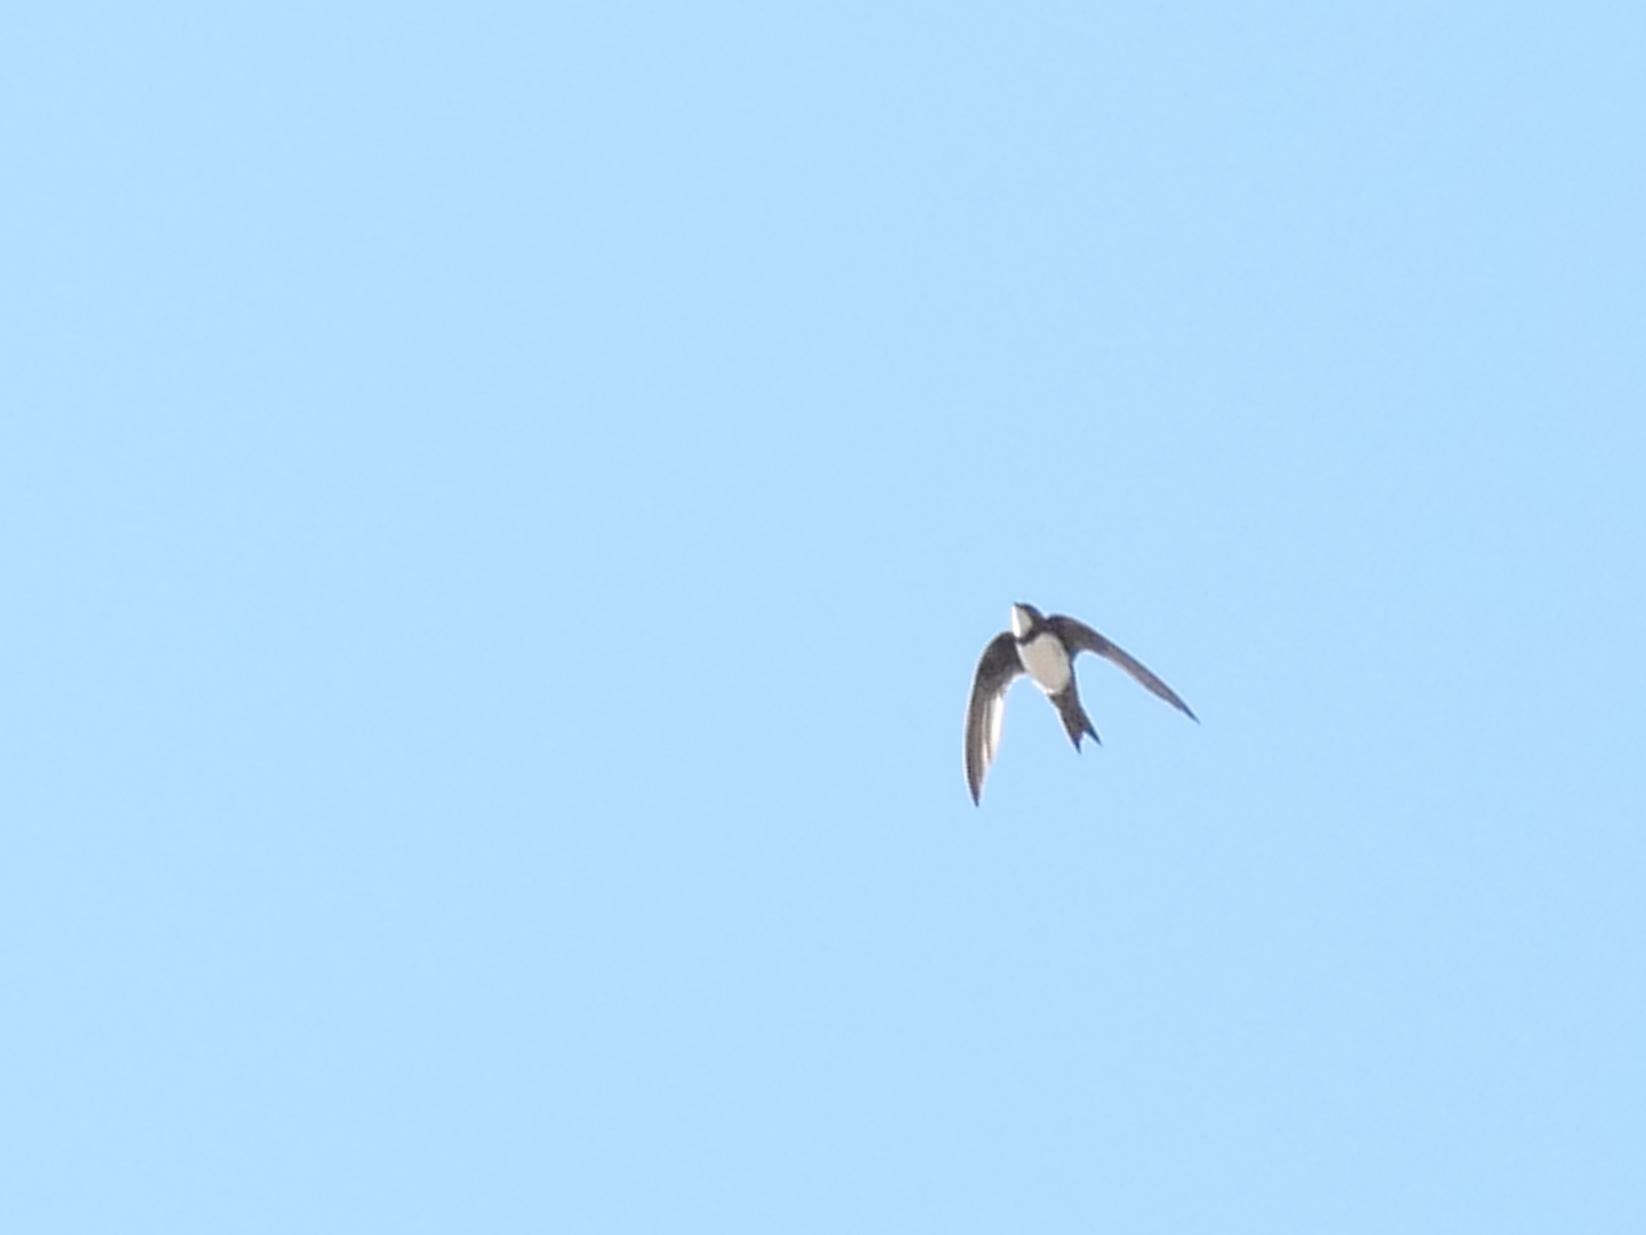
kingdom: Animalia
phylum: Chordata
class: Aves
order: Apodiformes
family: Apodidae
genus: Tachymarptis
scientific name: Tachymarptis melba
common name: Alpine swift
